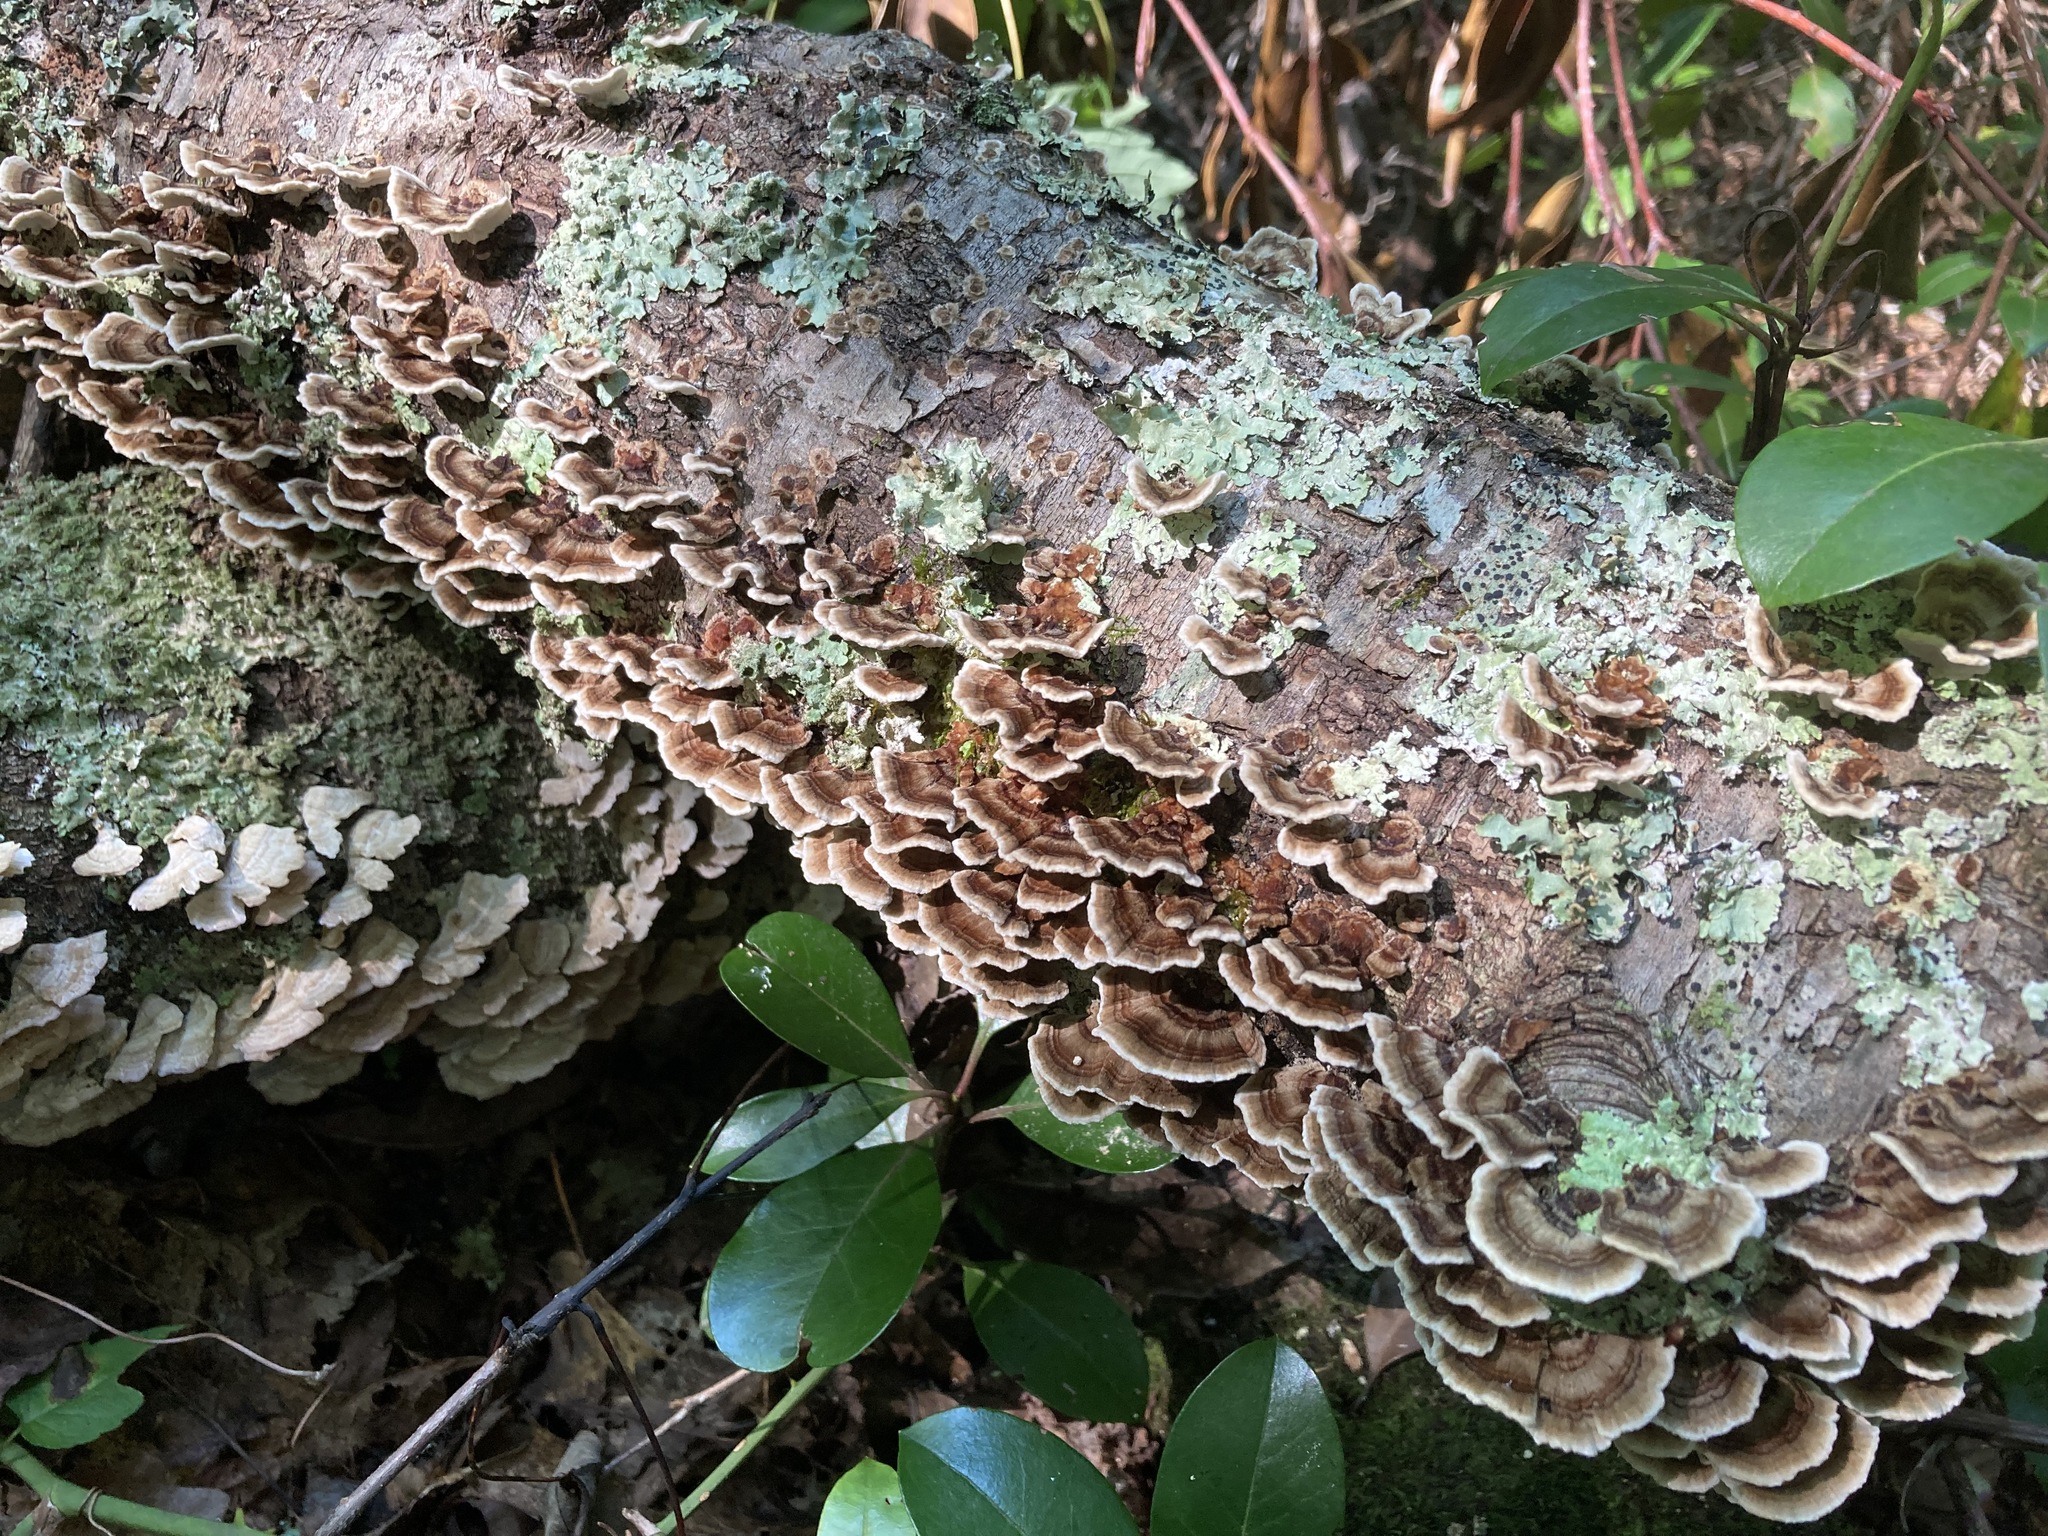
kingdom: Fungi
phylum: Basidiomycota
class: Agaricomycetes
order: Polyporales
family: Polyporaceae
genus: Trametes
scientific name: Trametes versicolor
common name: Turkeytail
